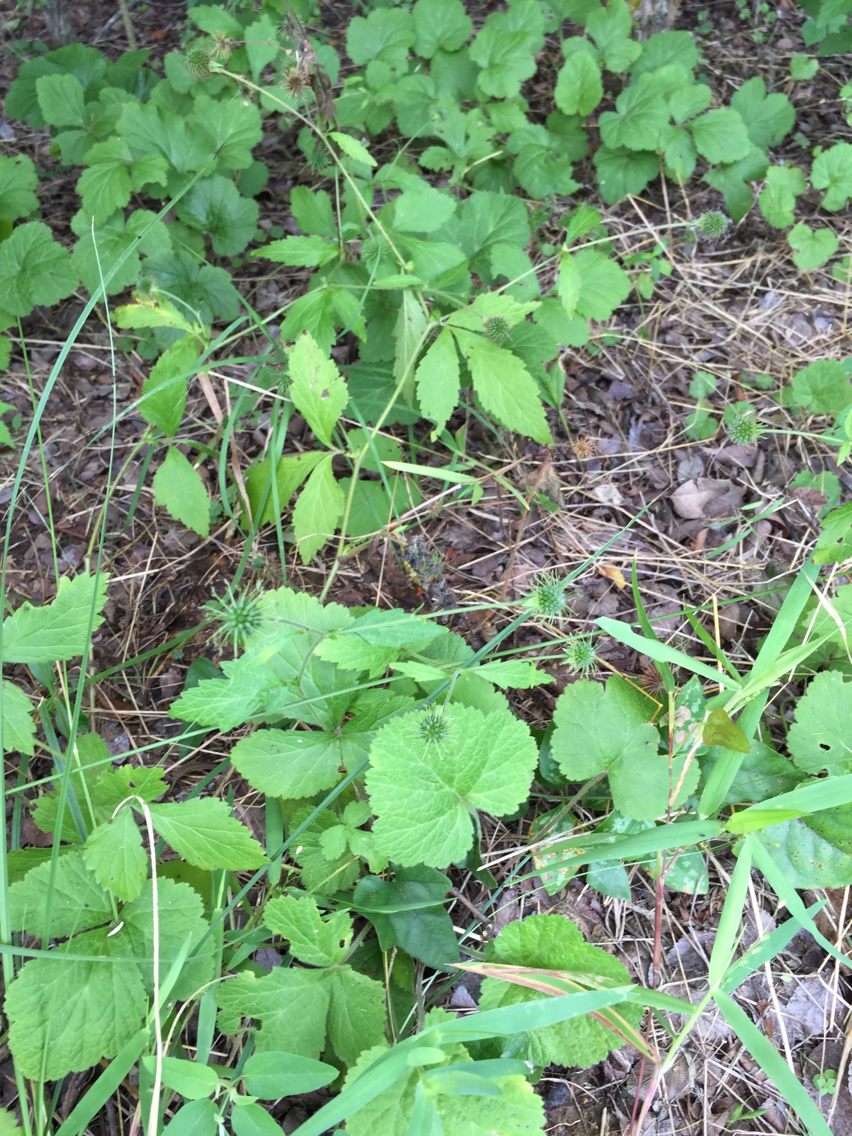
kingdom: Plantae
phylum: Tracheophyta
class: Magnoliopsida
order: Rosales
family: Rosaceae
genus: Geum
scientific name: Geum canadense
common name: White avens
